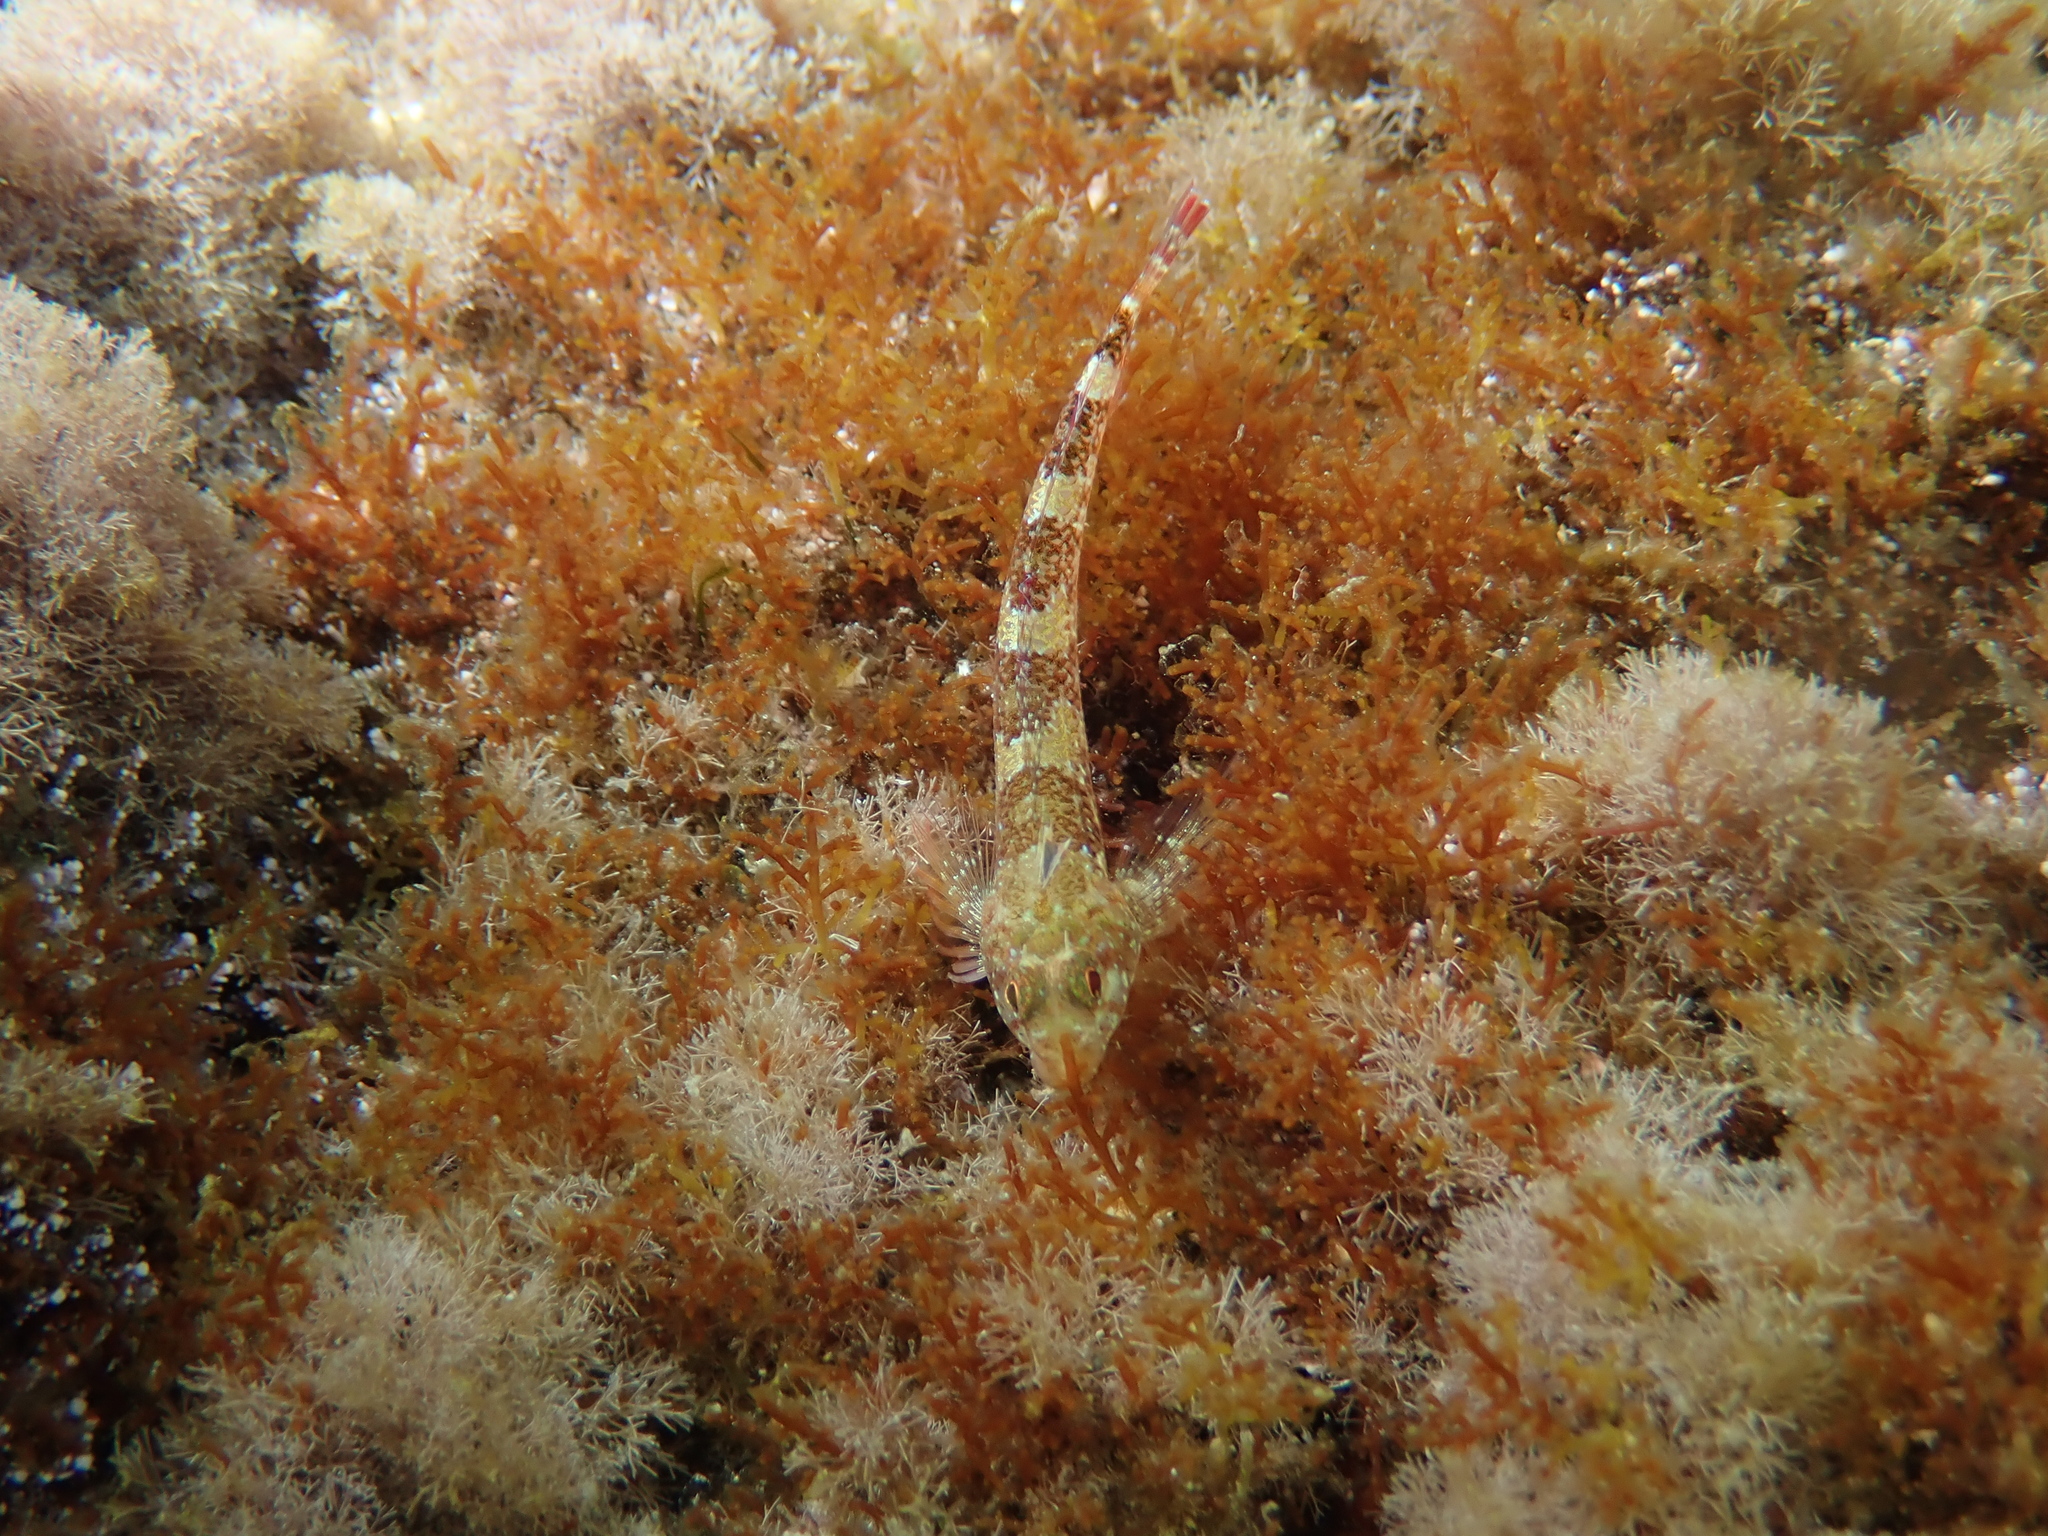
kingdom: Animalia
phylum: Chordata
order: Perciformes
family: Tripterygiidae
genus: Tripterygion
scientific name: Tripterygion tripteronotum
